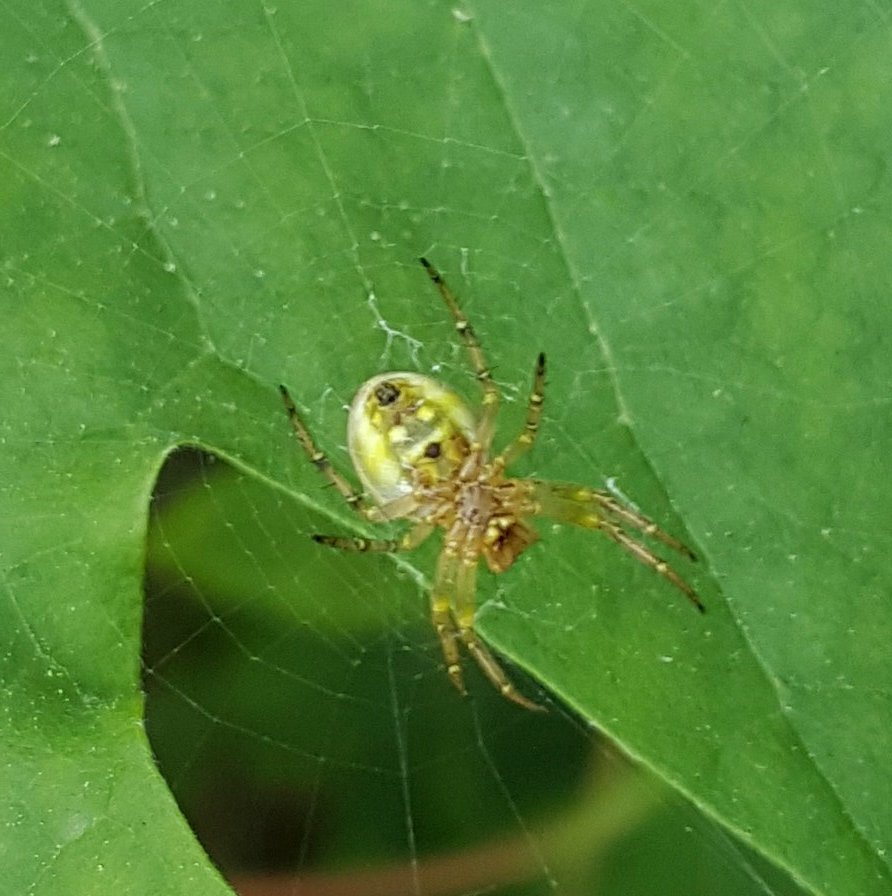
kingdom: Animalia
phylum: Arthropoda
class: Arachnida
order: Araneae
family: Araneidae
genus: Araniella
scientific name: Araniella displicata
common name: Sixspotted orb weaver
